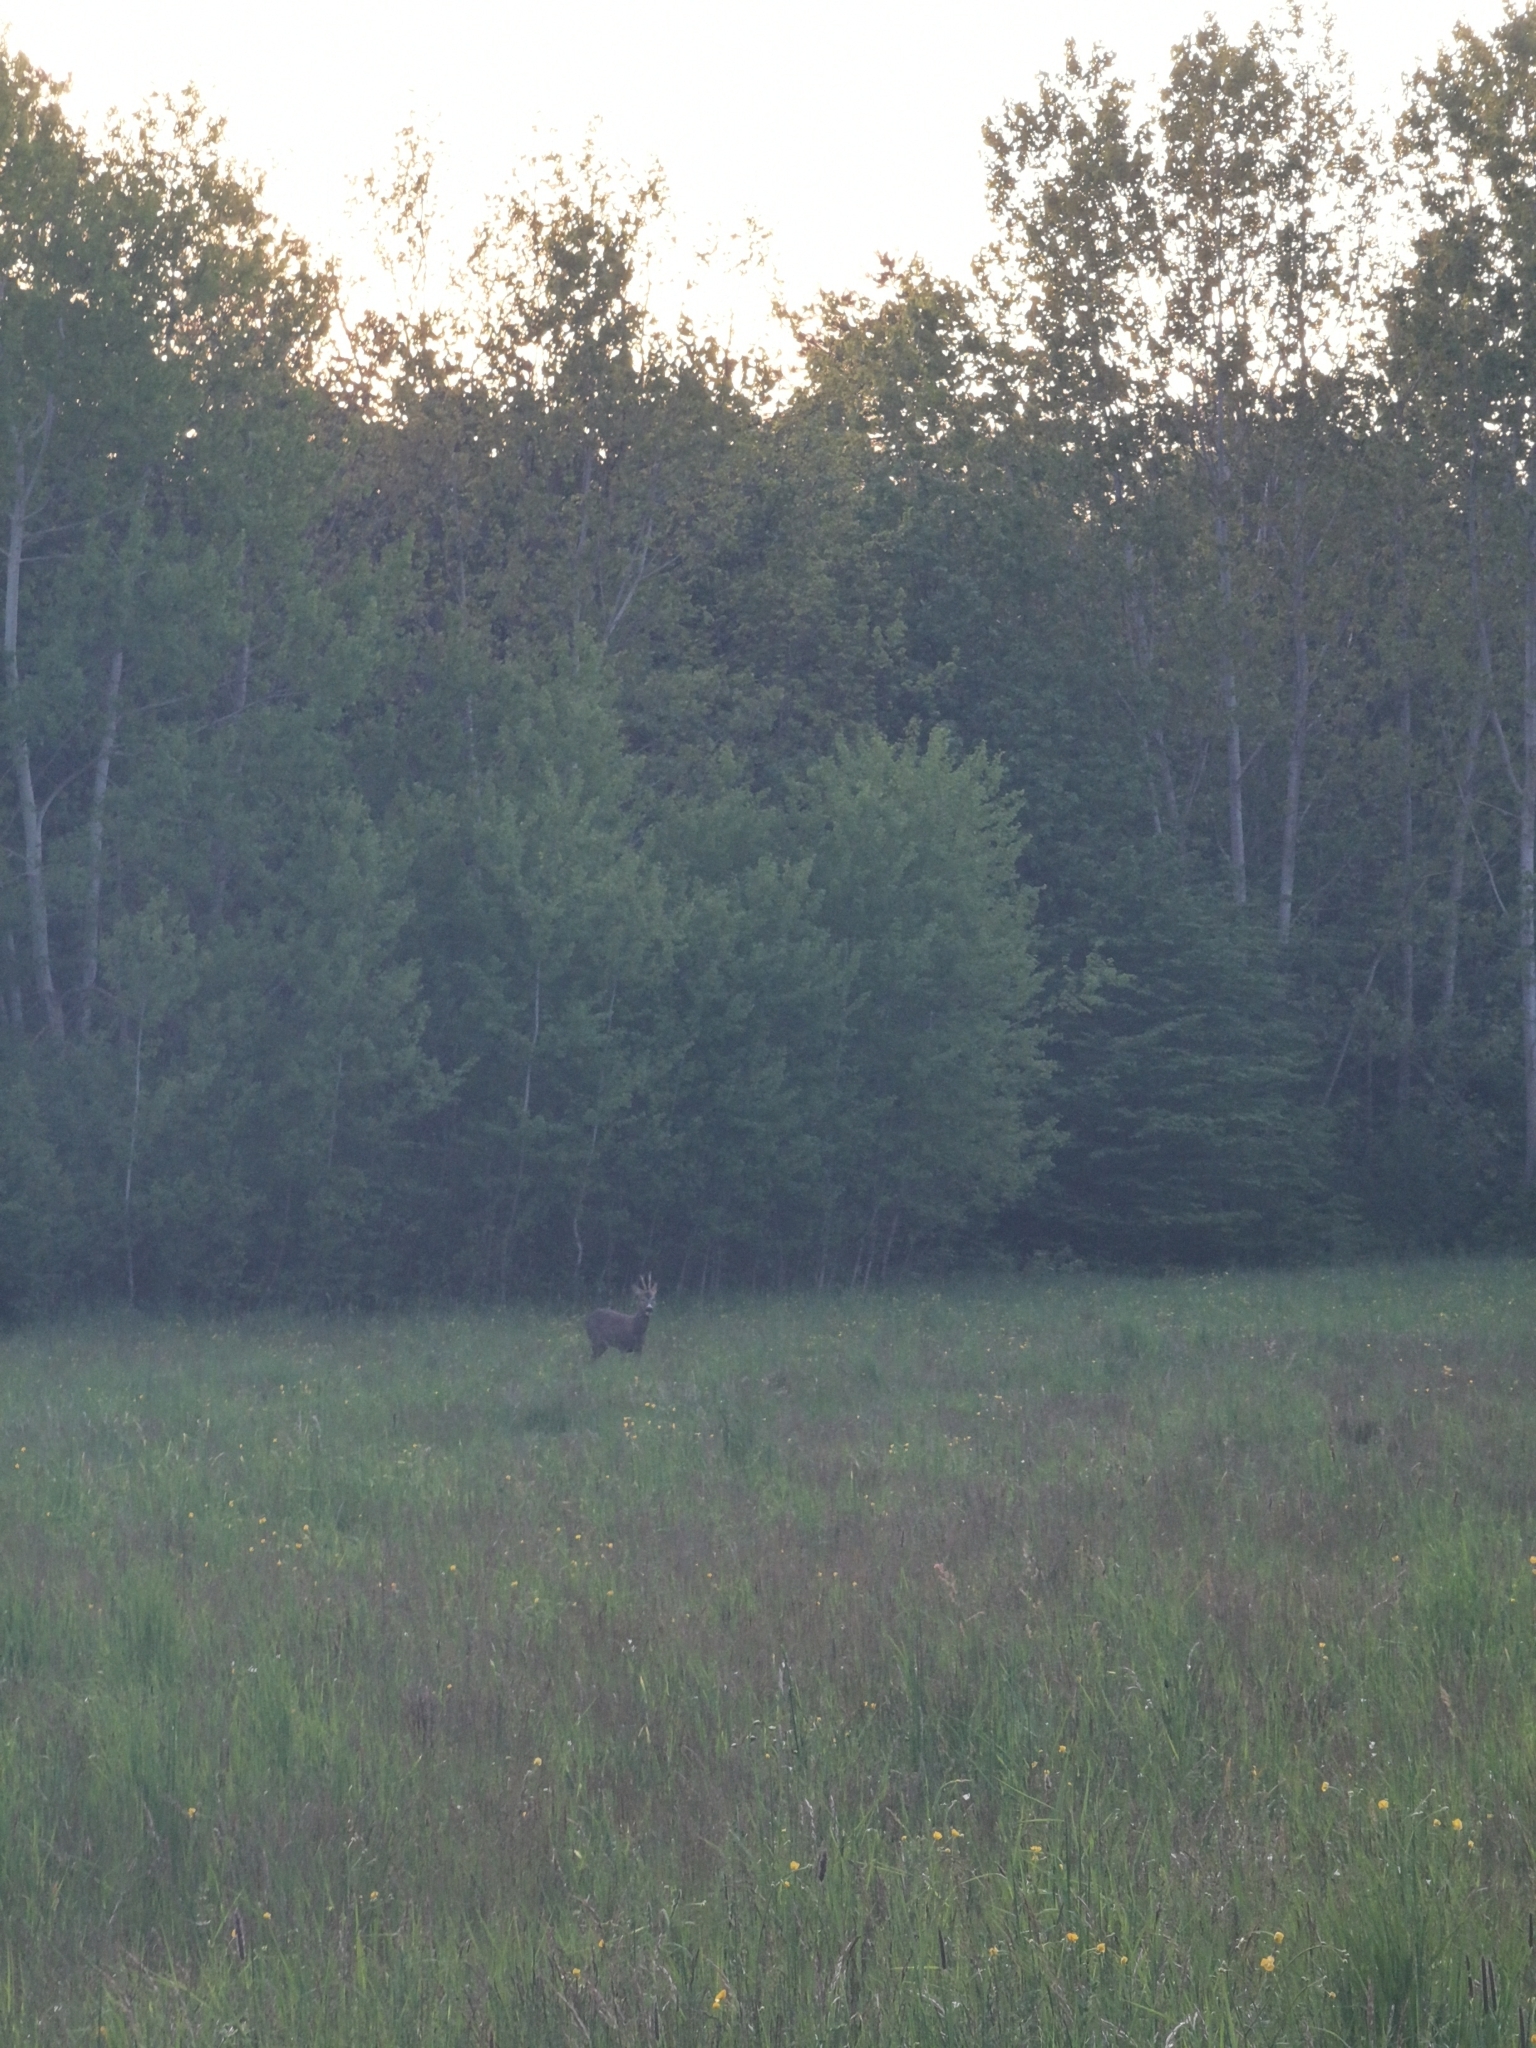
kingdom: Animalia
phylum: Chordata
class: Mammalia
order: Artiodactyla
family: Cervidae
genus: Capreolus
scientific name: Capreolus capreolus
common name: Western roe deer
